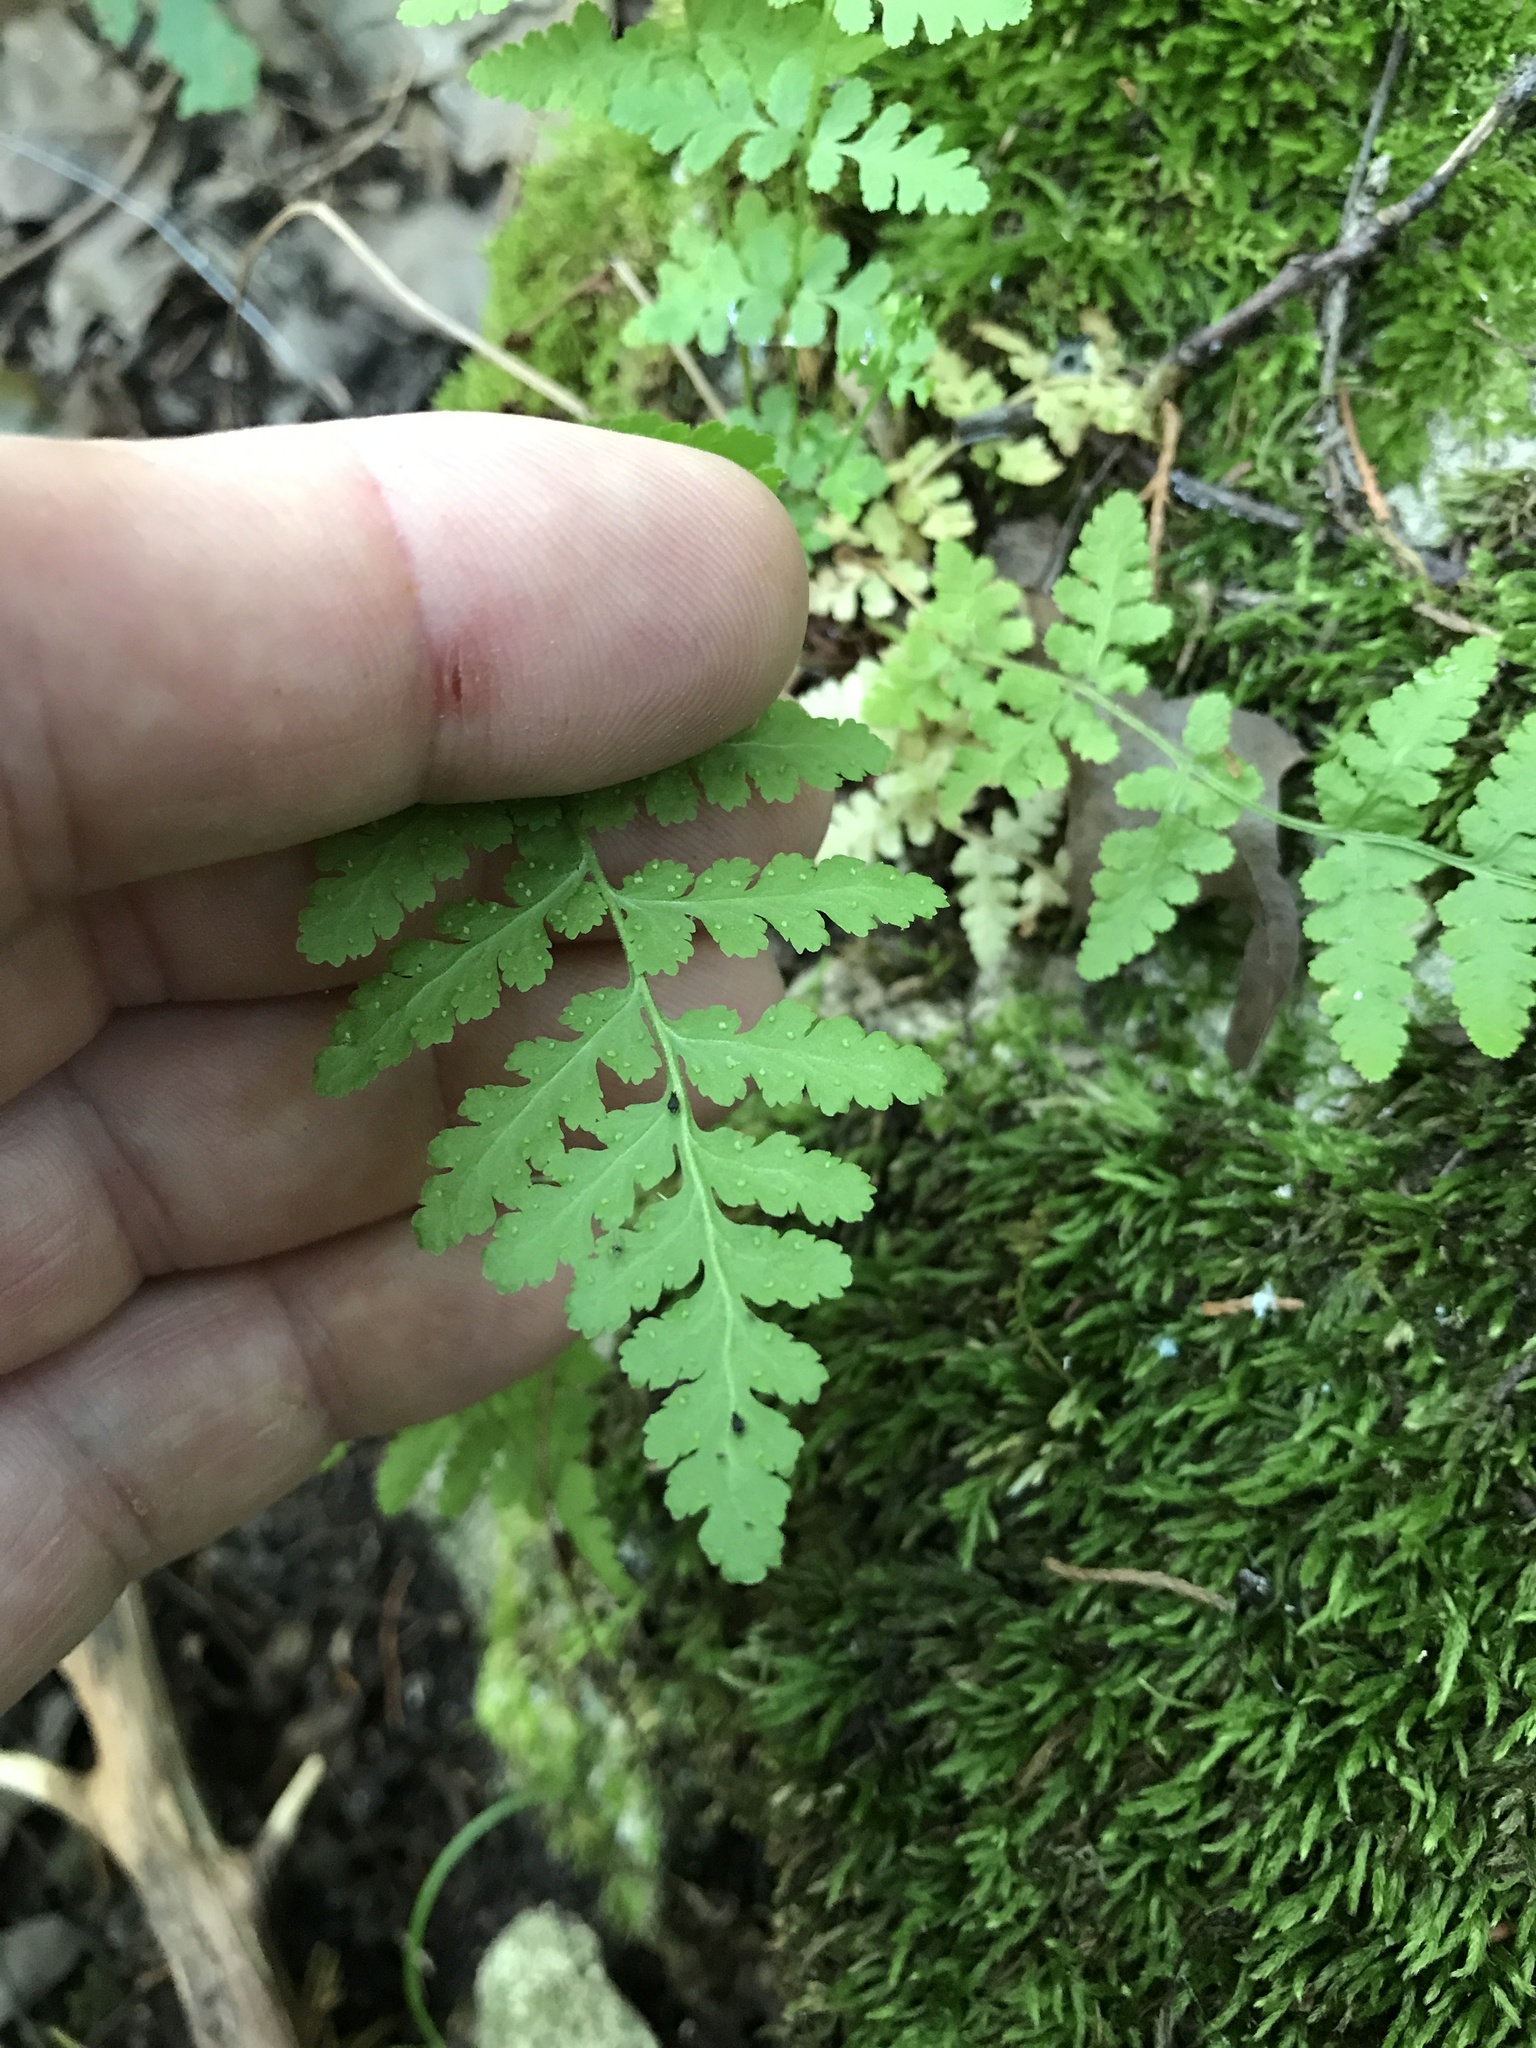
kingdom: Plantae
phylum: Tracheophyta
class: Polypodiopsida
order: Polypodiales
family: Woodsiaceae
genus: Physematium
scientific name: Physematium obtusum
